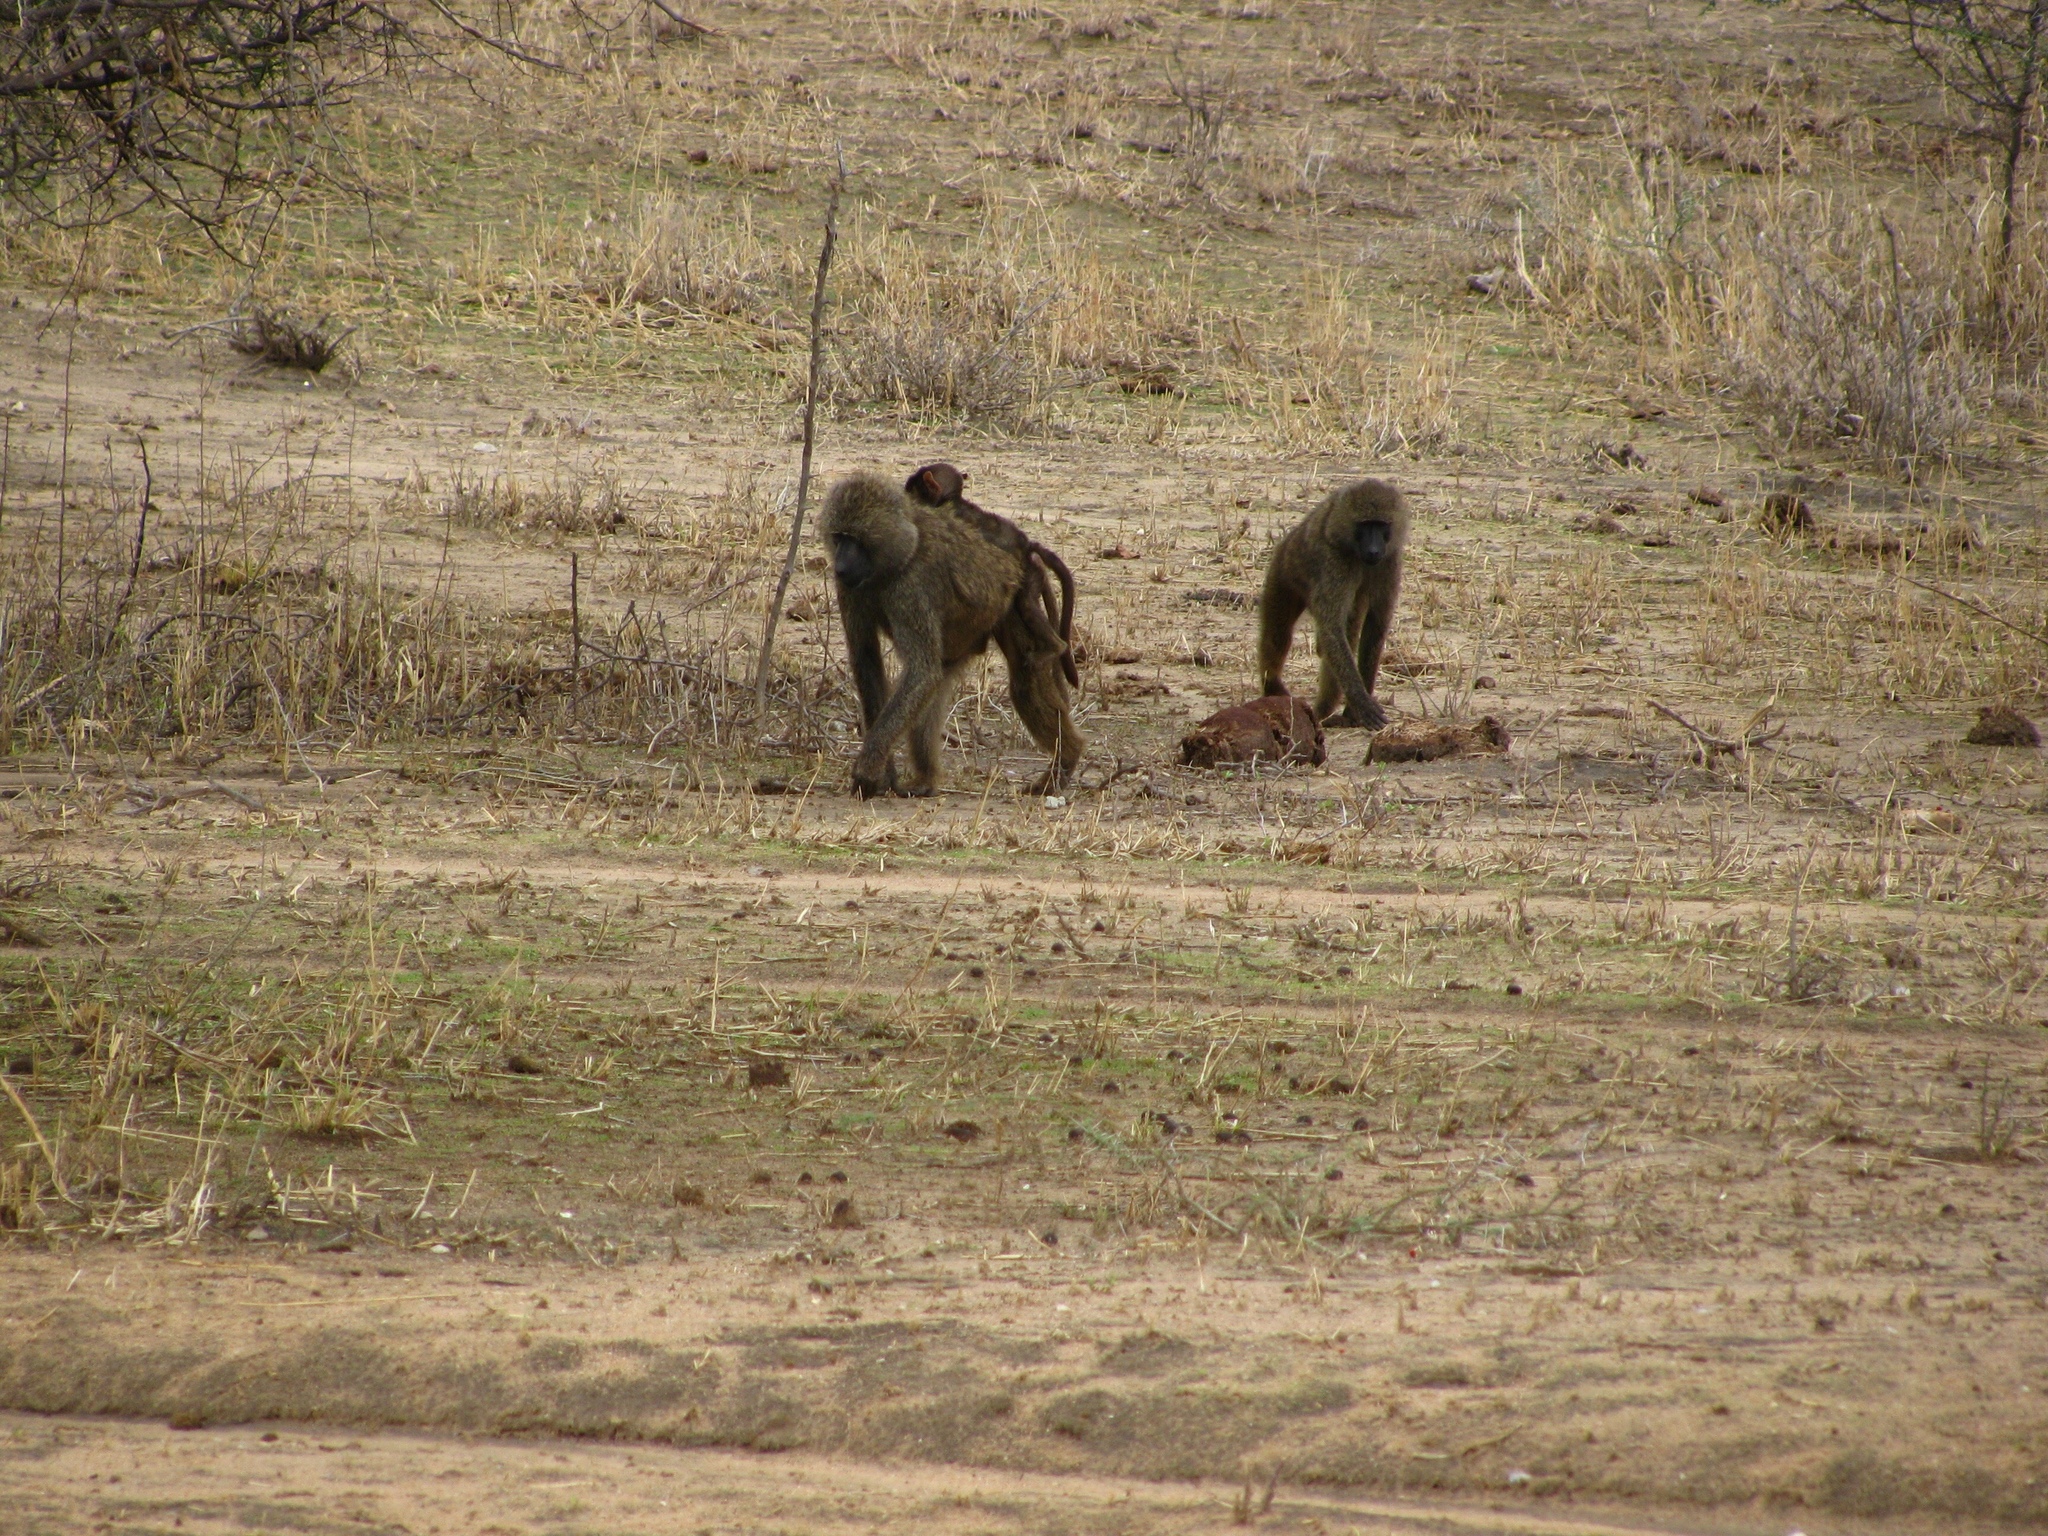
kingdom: Animalia
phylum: Chordata
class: Mammalia
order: Primates
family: Cercopithecidae
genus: Papio
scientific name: Papio anubis
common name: Olive baboon
